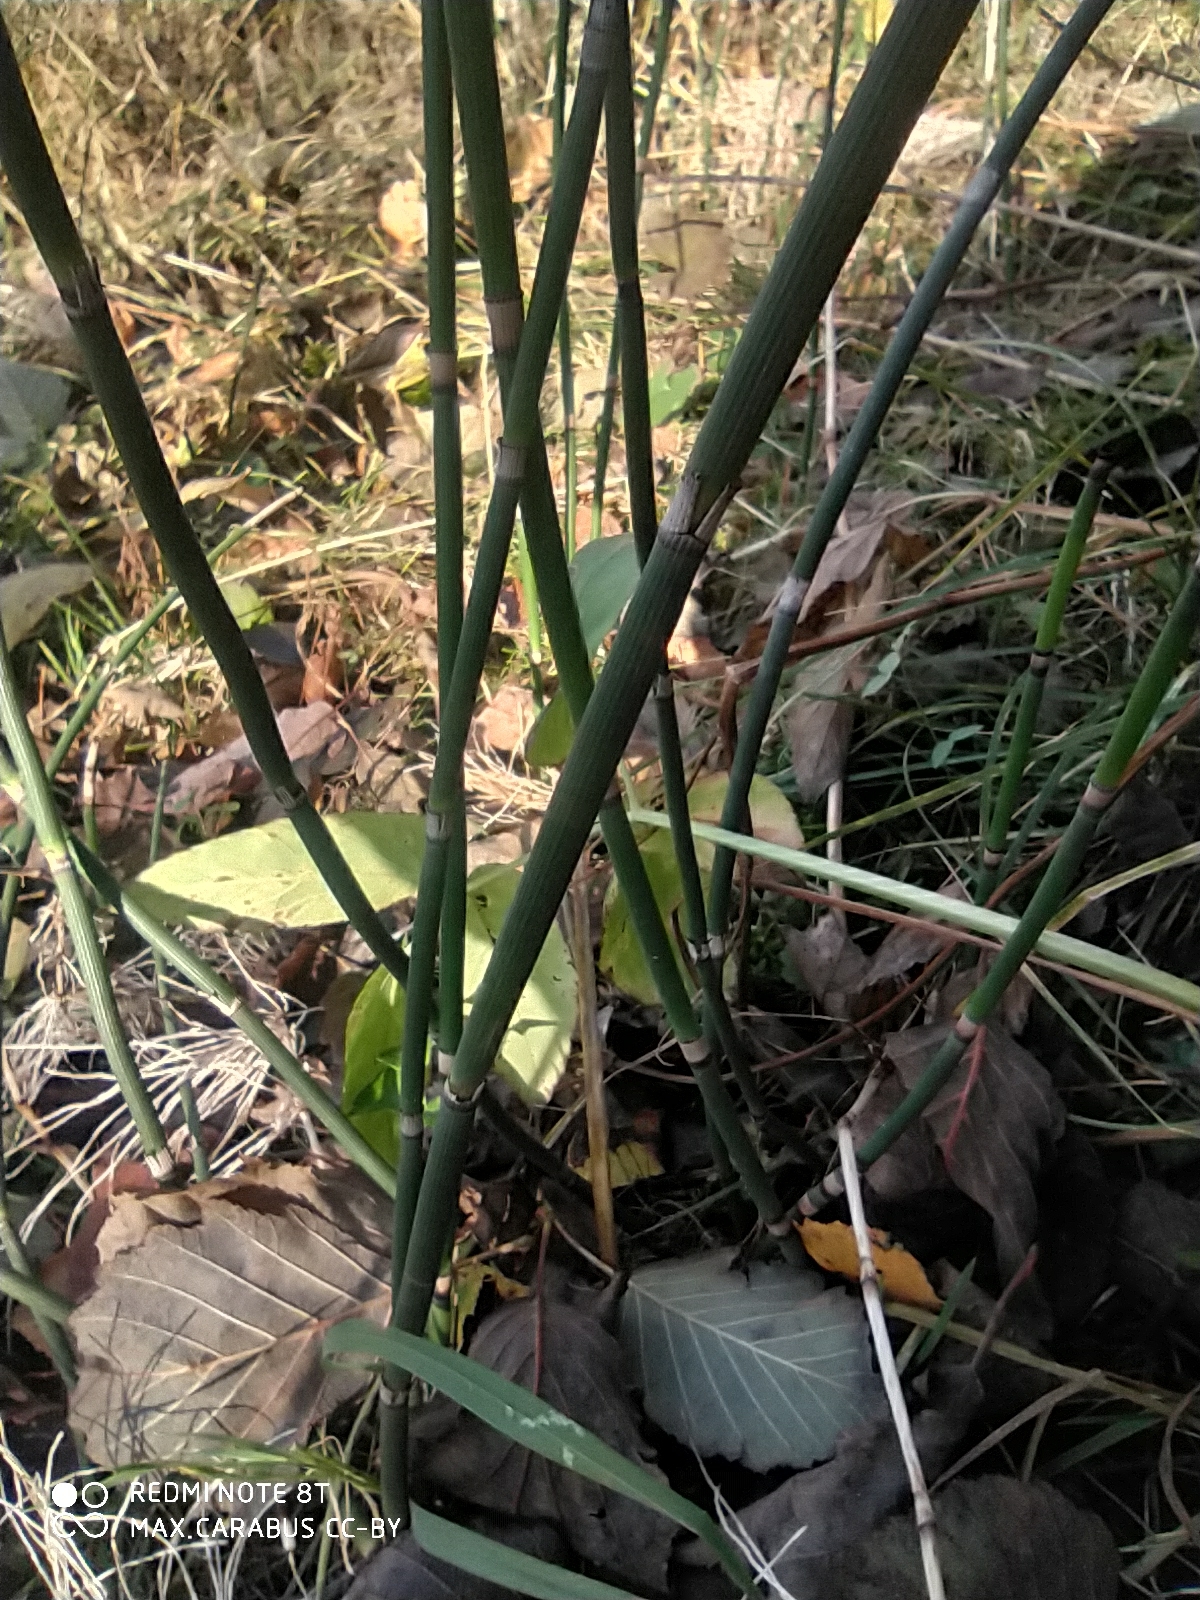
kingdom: Plantae
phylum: Tracheophyta
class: Polypodiopsida
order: Equisetales
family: Equisetaceae
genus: Equisetum
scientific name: Equisetum hyemale
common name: Rough horsetail
